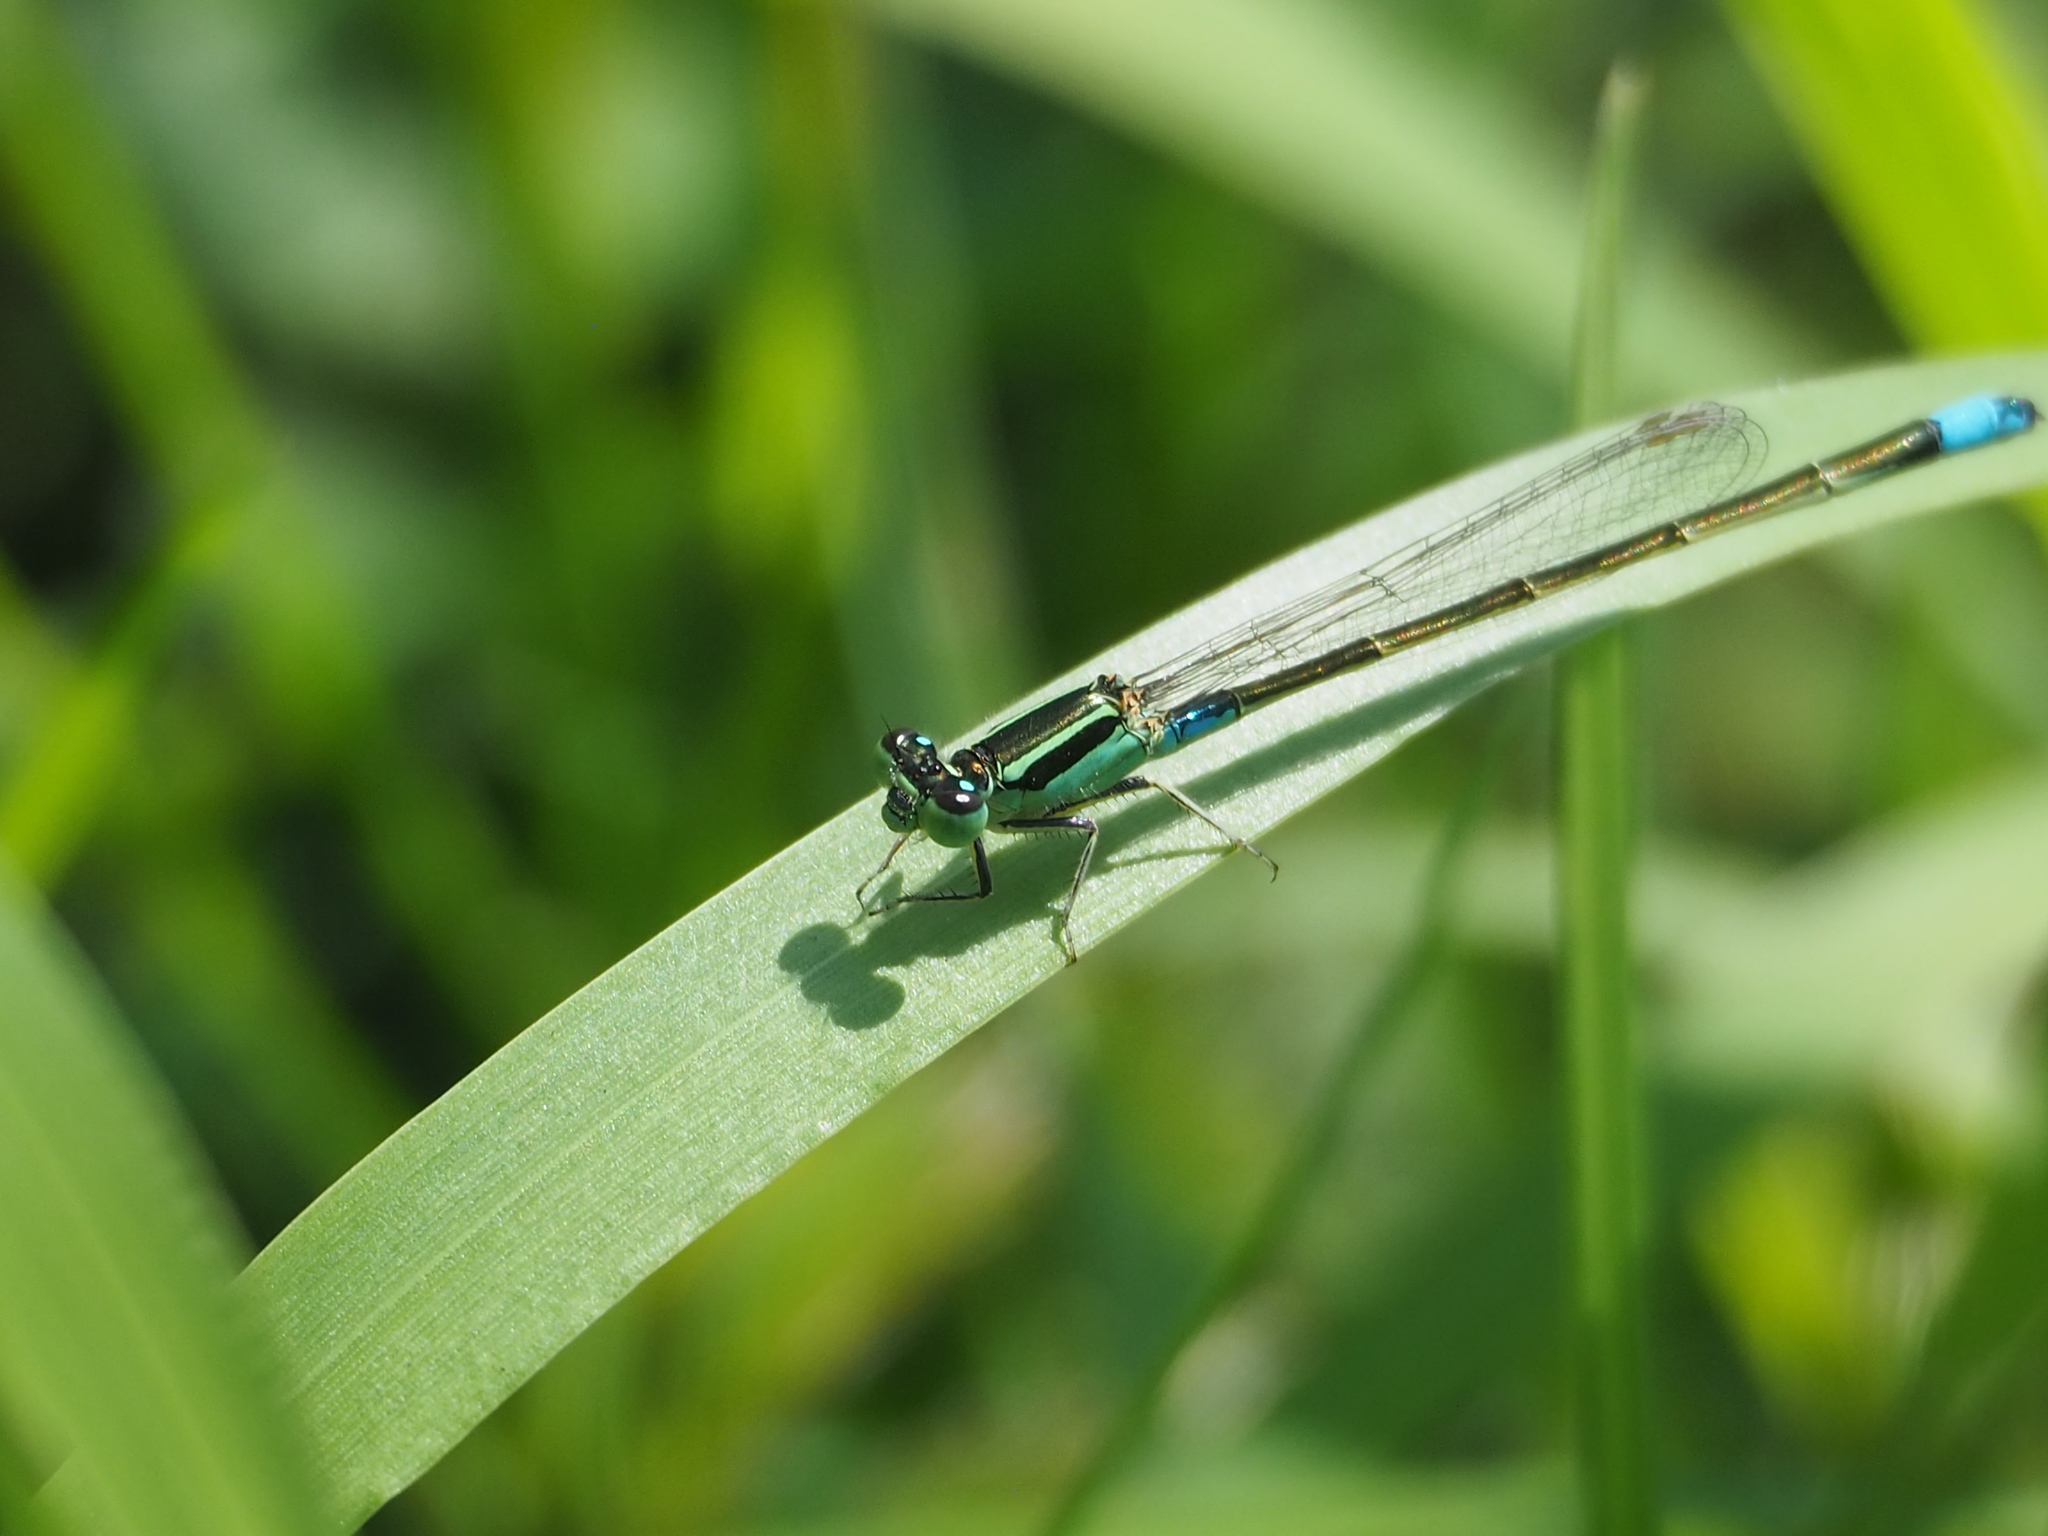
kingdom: Animalia
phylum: Arthropoda
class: Insecta
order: Odonata
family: Coenagrionidae
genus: Ischnura
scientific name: Ischnura senegalensis
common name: Tropical bluetail
